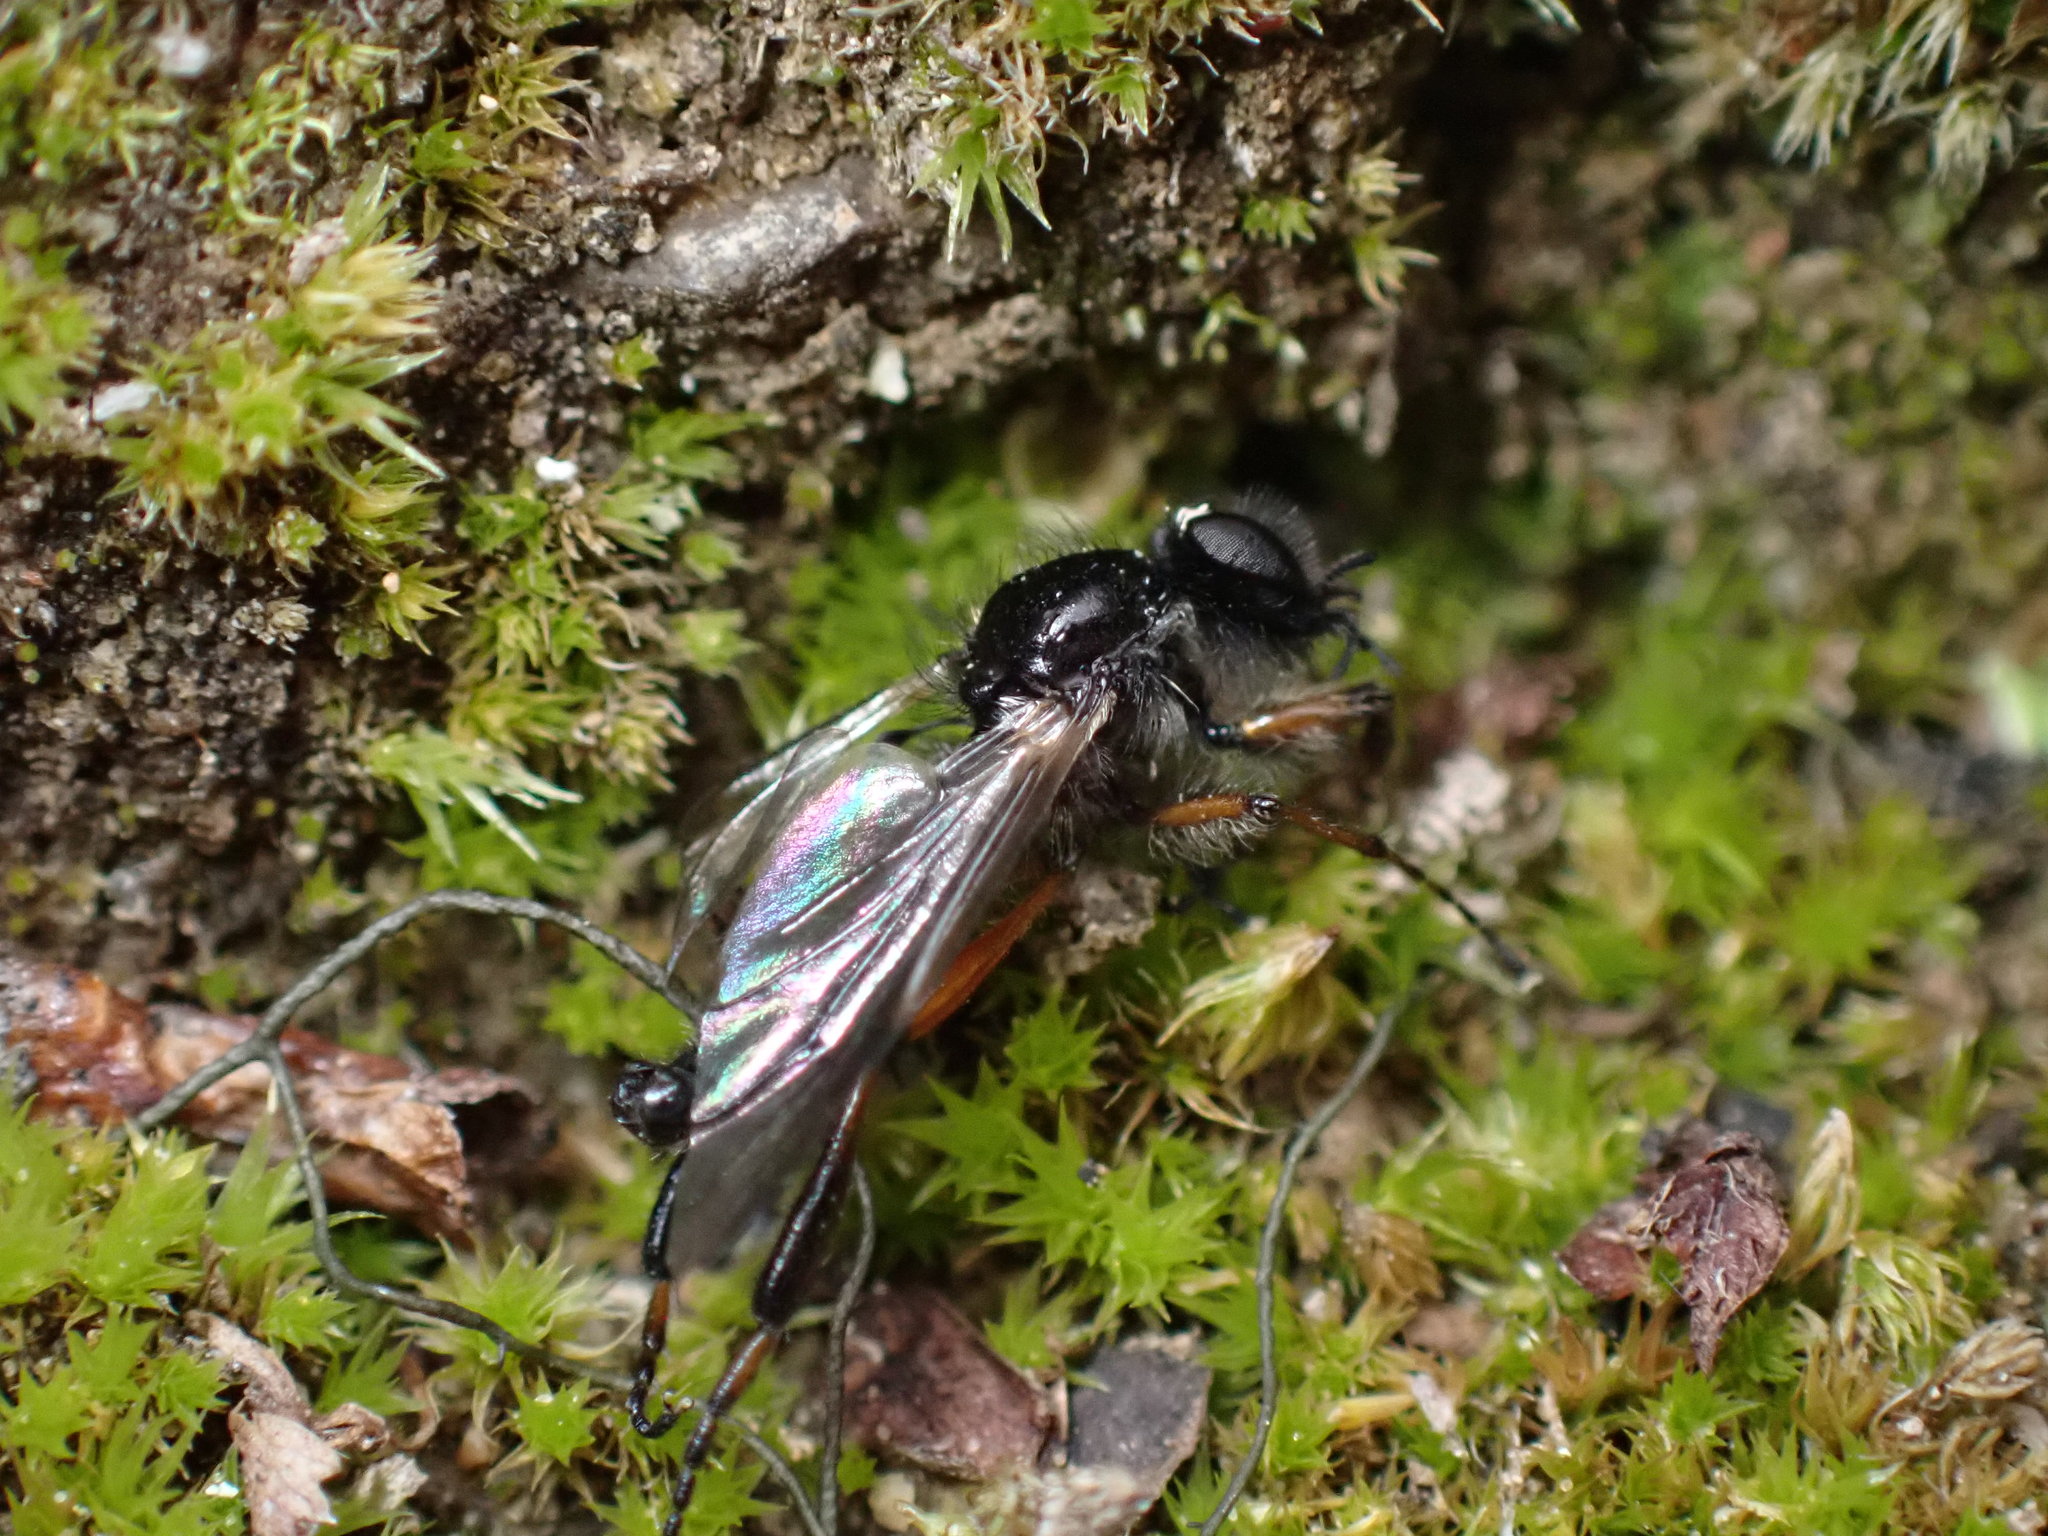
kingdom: Animalia
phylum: Arthropoda
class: Insecta
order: Diptera
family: Bibionidae
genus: Bibio
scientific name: Bibio xanthopus
